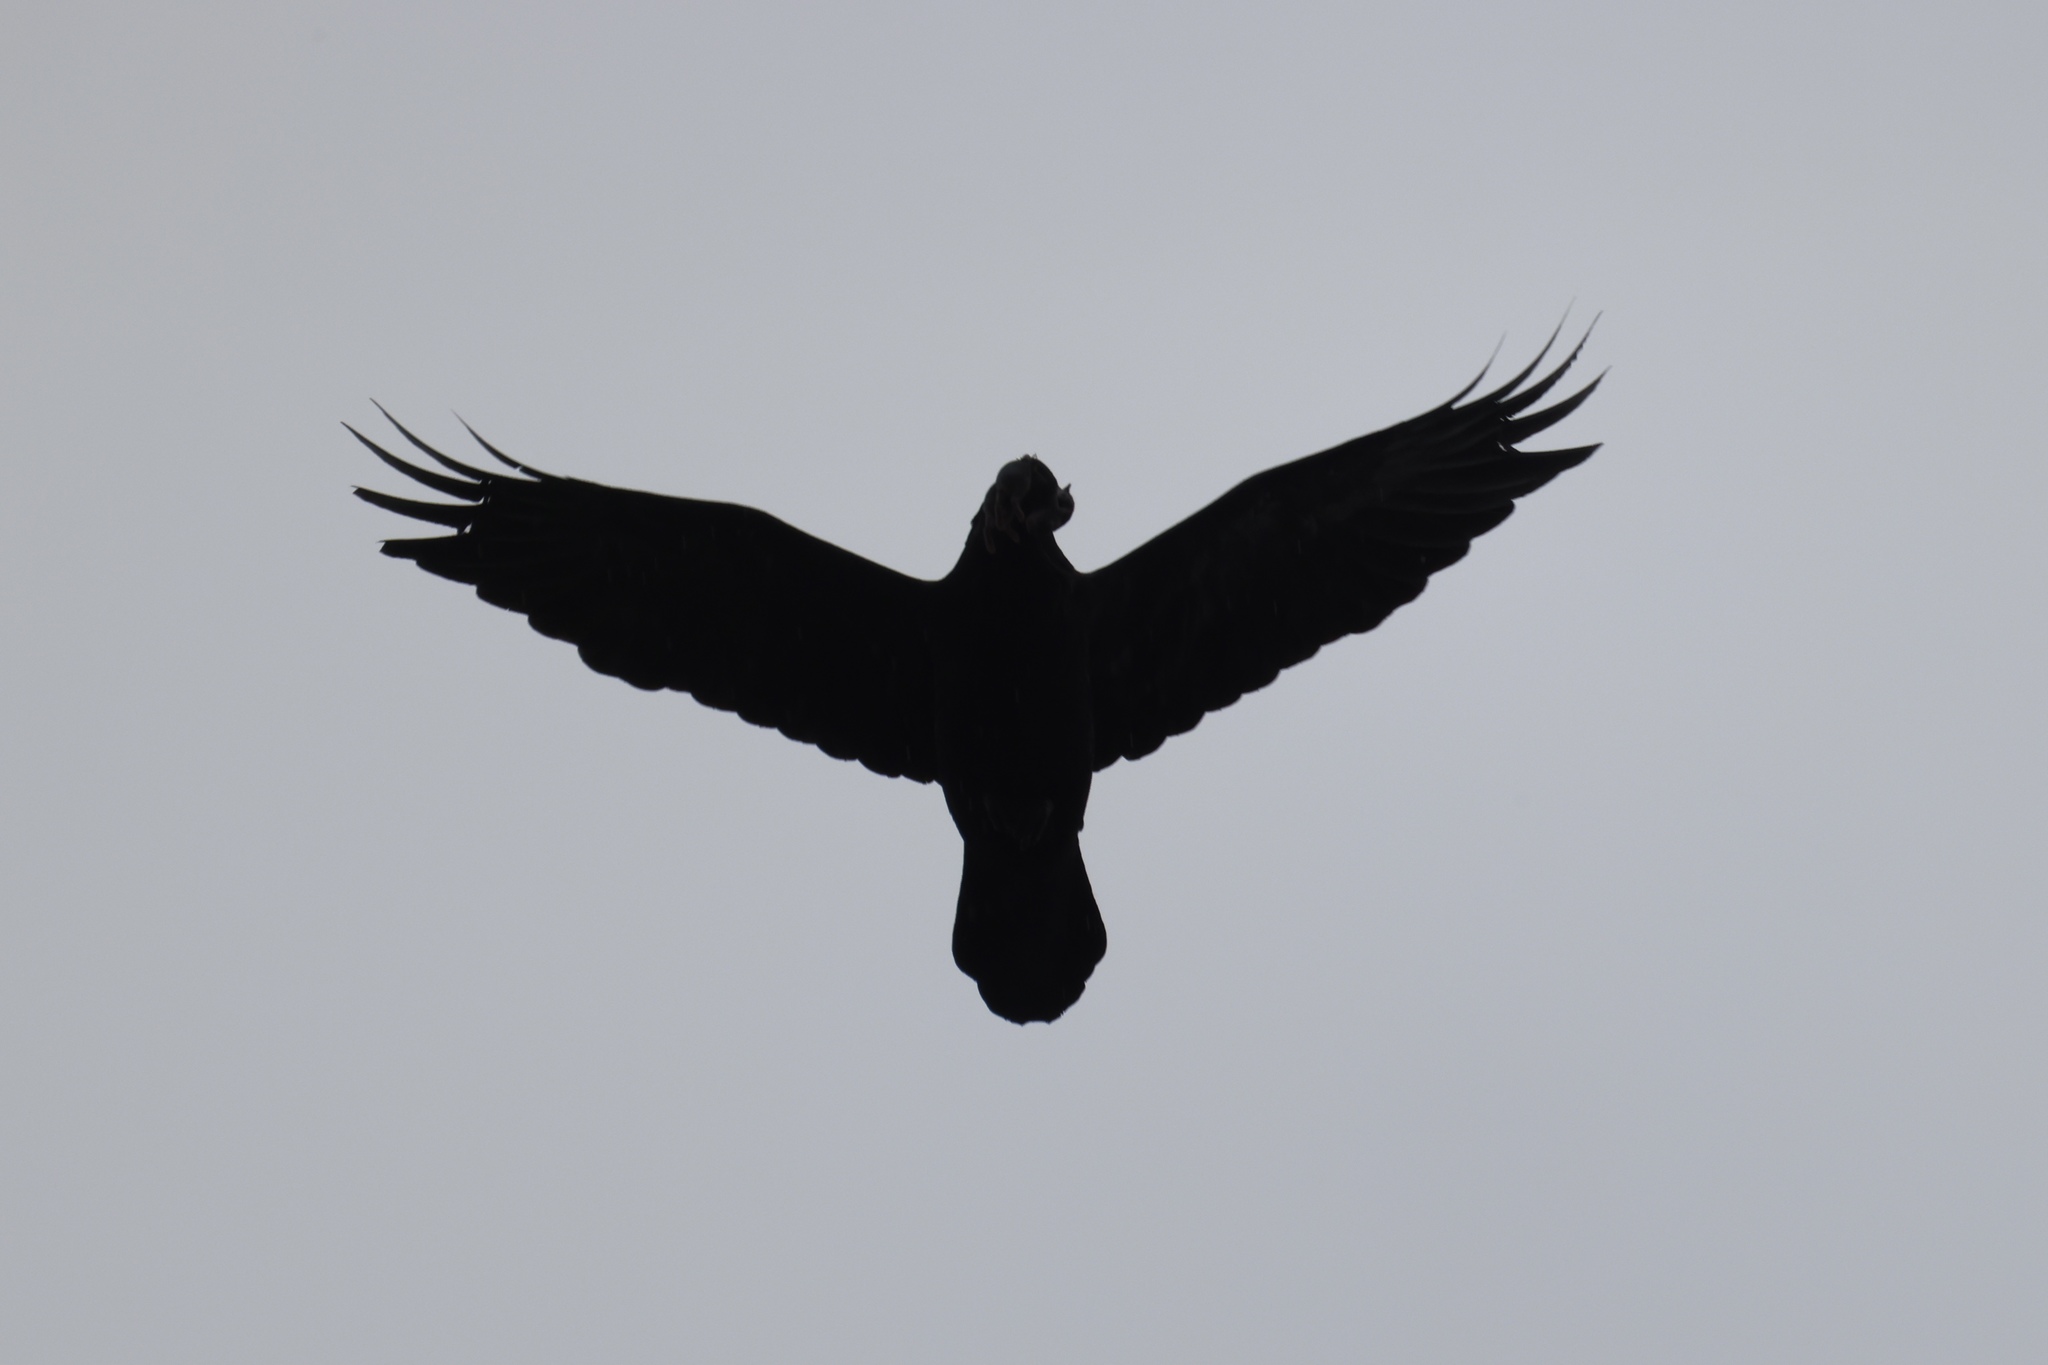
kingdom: Animalia
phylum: Chordata
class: Aves
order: Passeriformes
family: Corvidae
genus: Corvus
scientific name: Corvus corax
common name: Common raven
